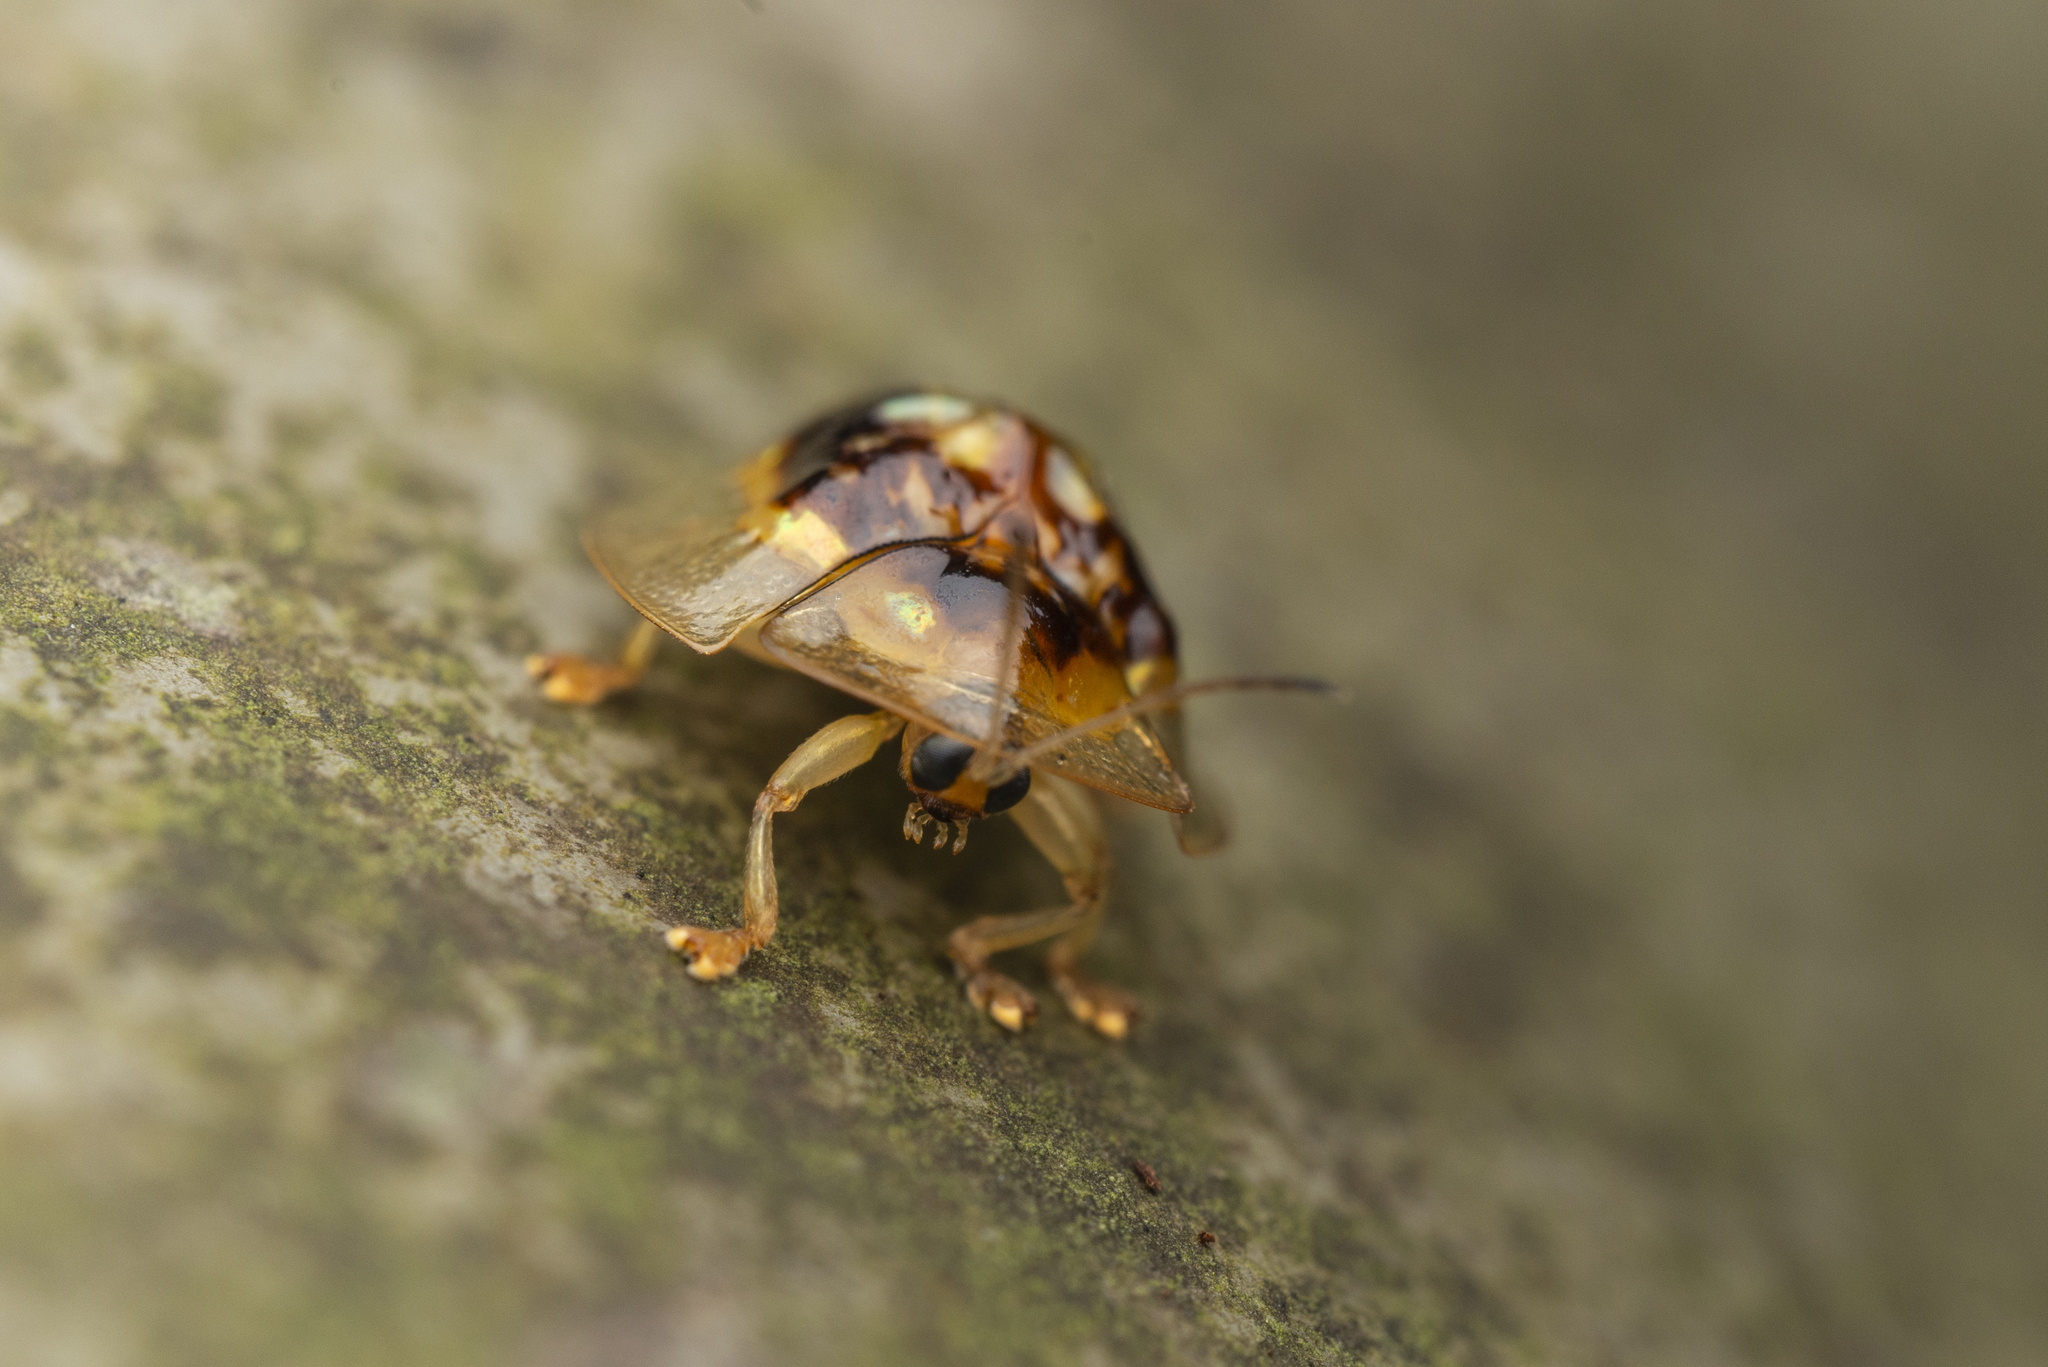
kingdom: Animalia
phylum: Arthropoda
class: Insecta
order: Coleoptera
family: Chrysomelidae
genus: Cassida
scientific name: Cassida crucifera
